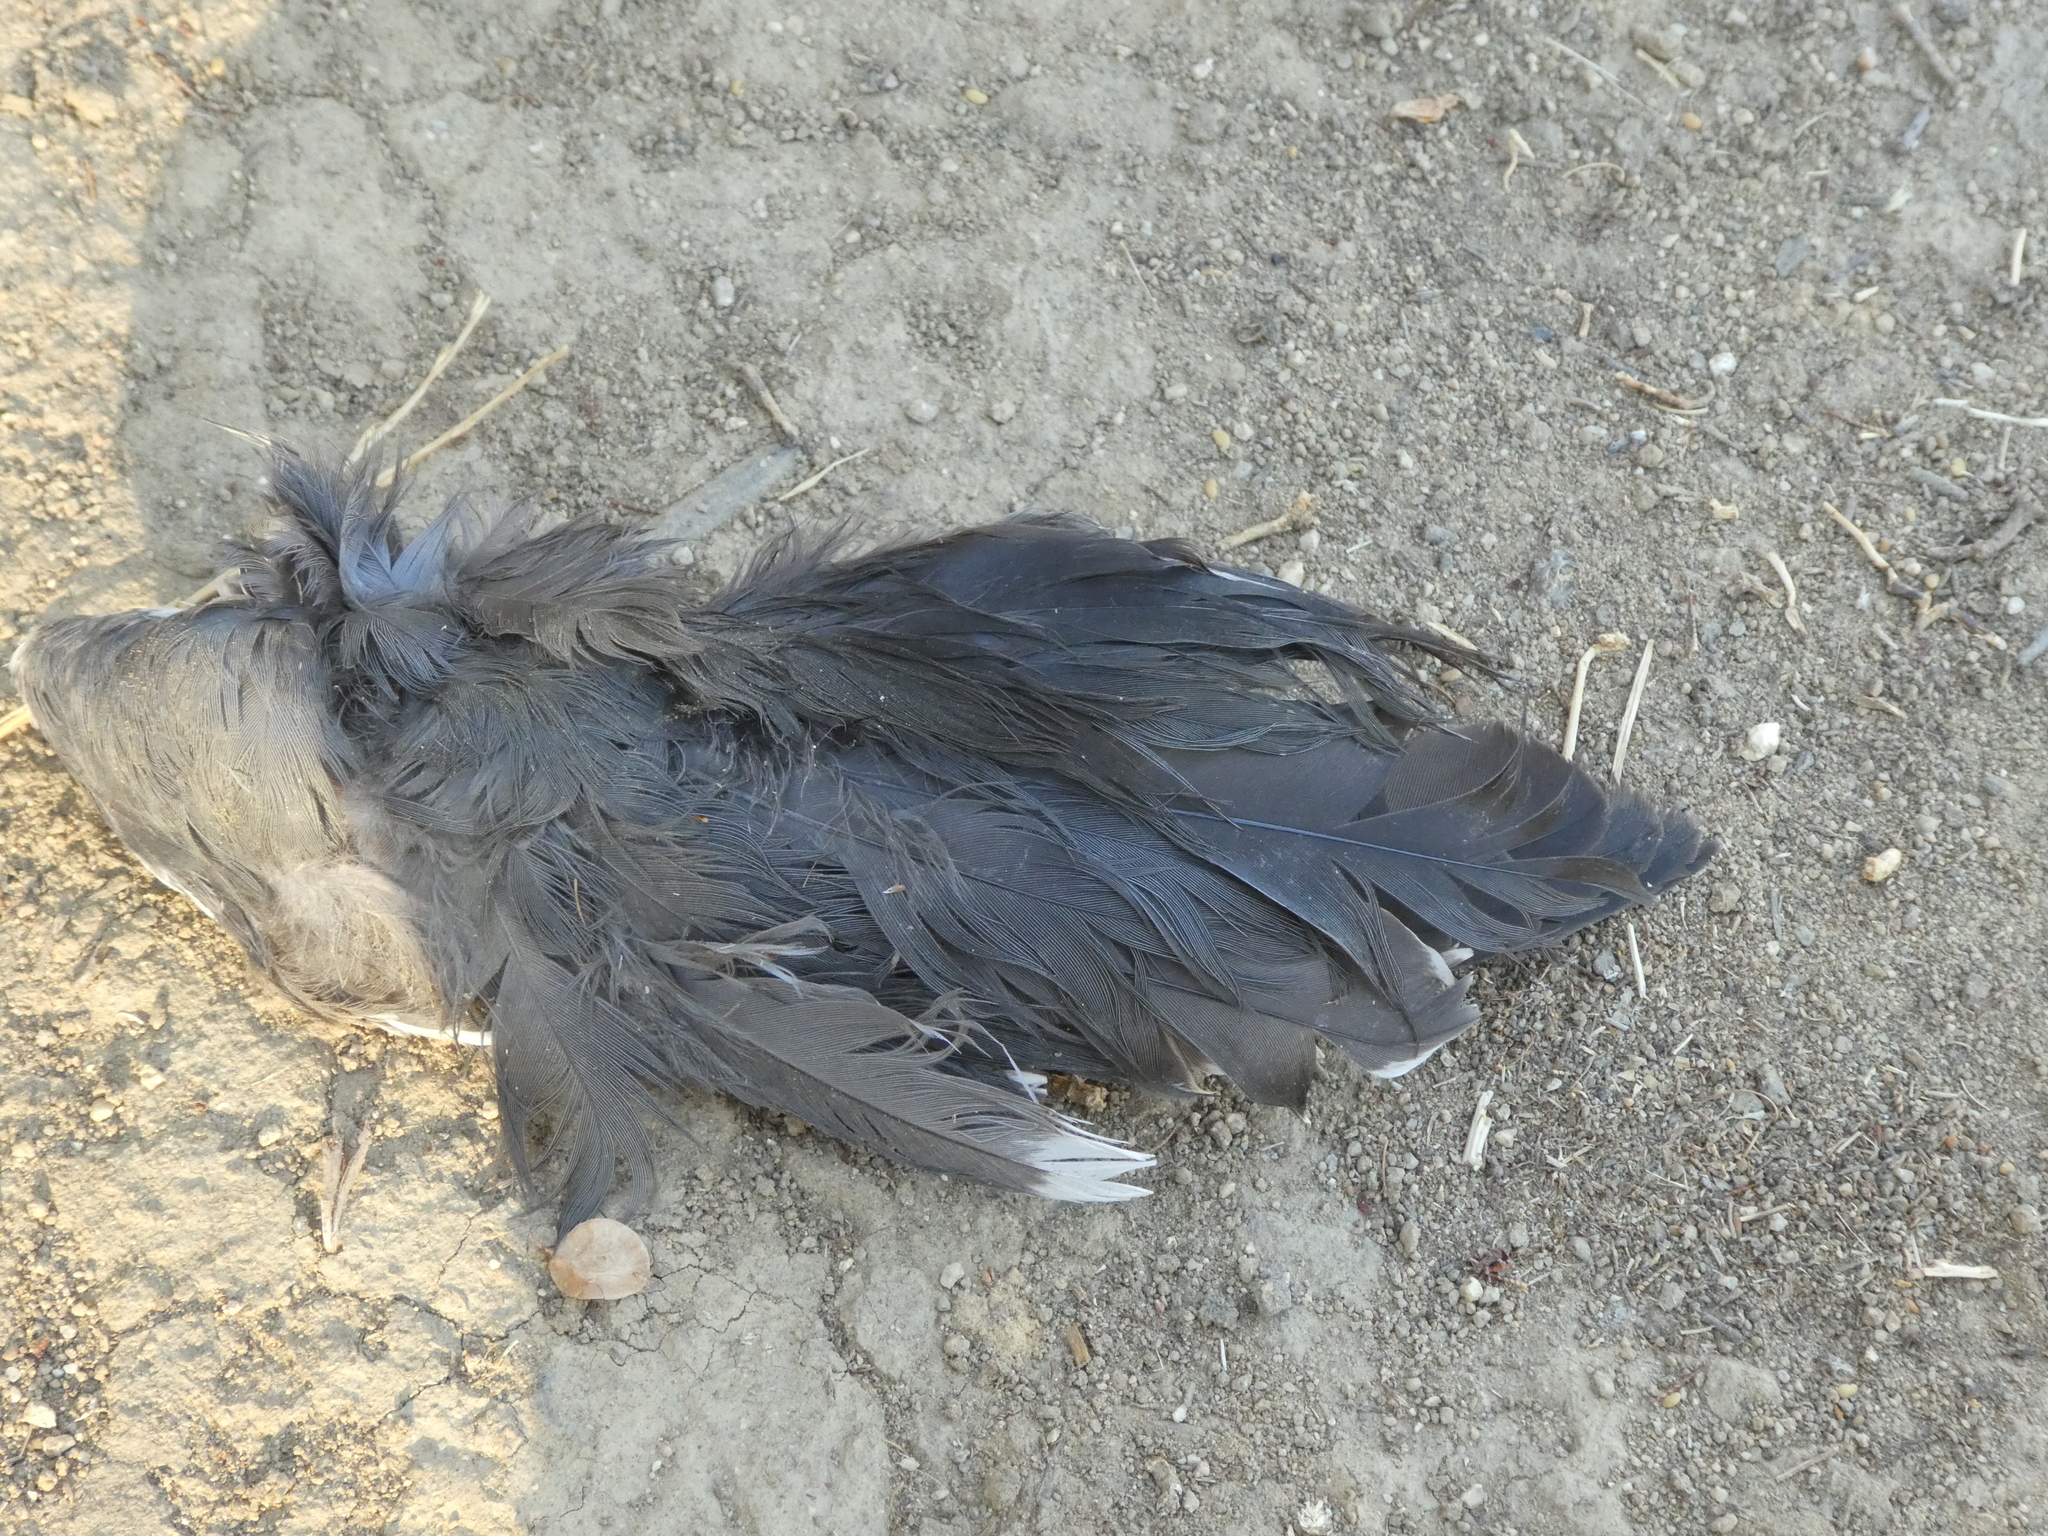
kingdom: Animalia
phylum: Chordata
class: Aves
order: Gruiformes
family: Rallidae
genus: Fulica
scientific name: Fulica americana
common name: American coot
